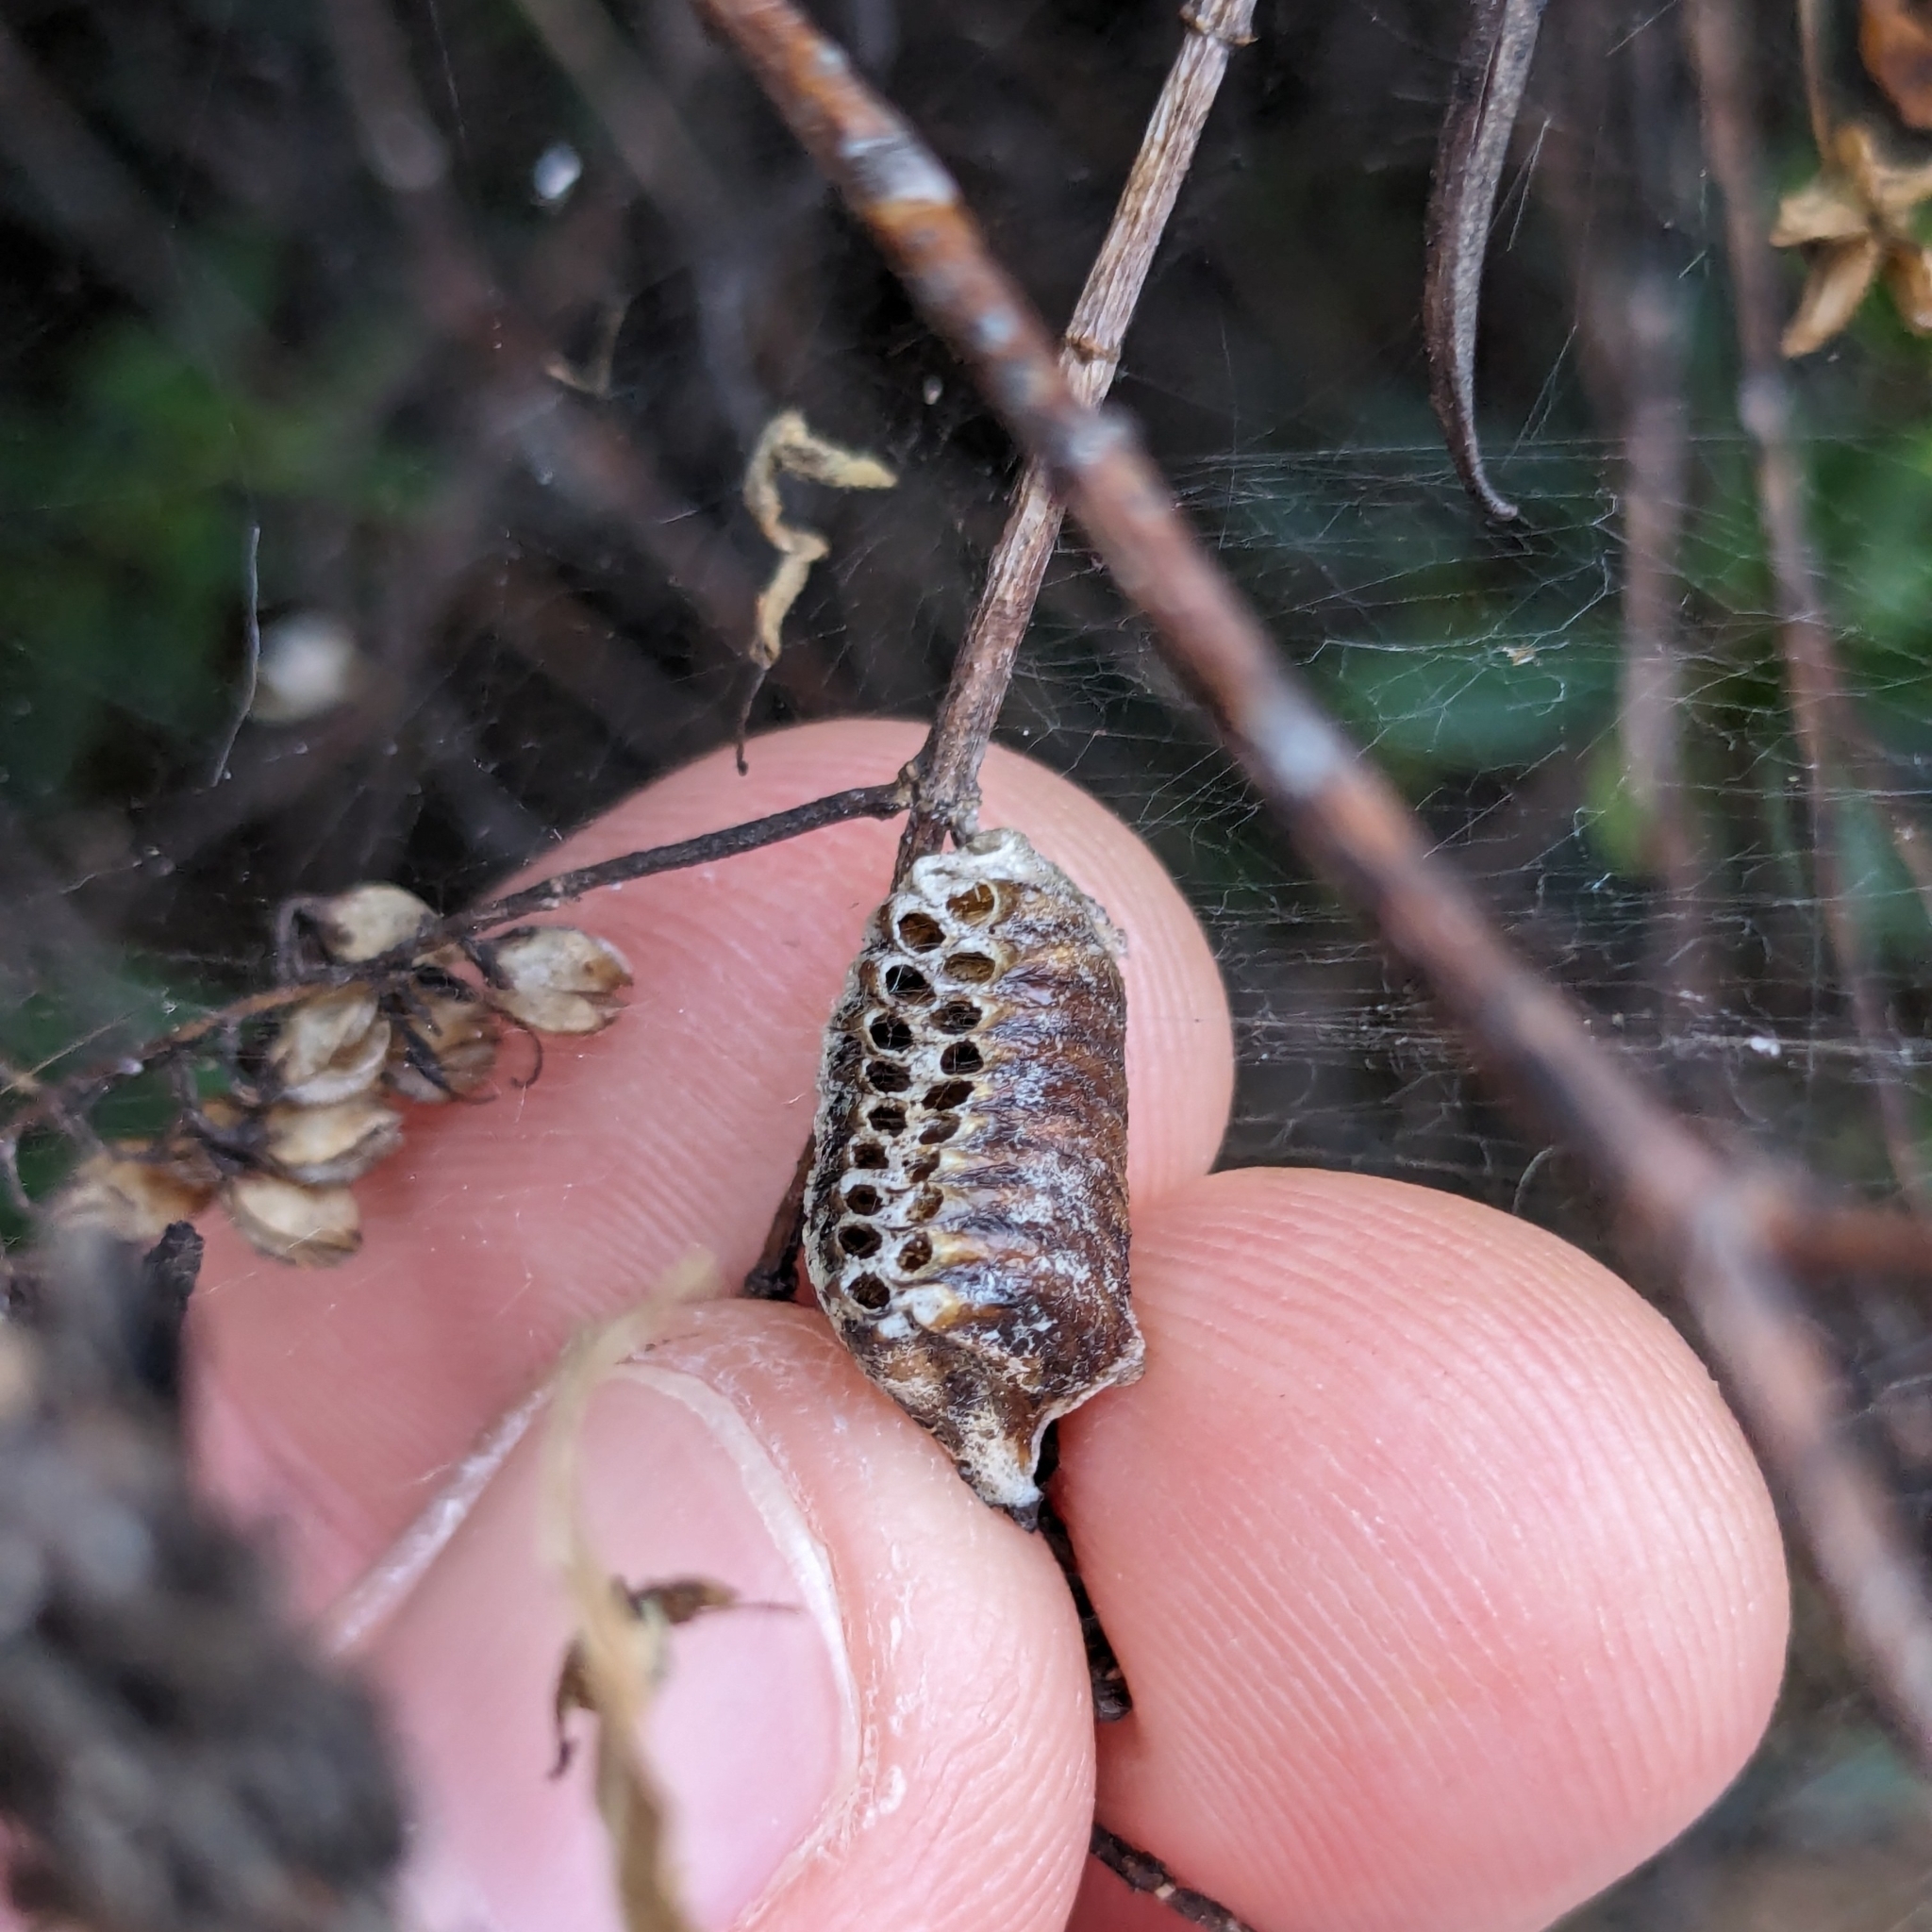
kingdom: Animalia
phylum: Arthropoda
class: Insecta
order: Mantodea
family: Mantidae
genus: Orthodera
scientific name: Orthodera novaezealandiae
